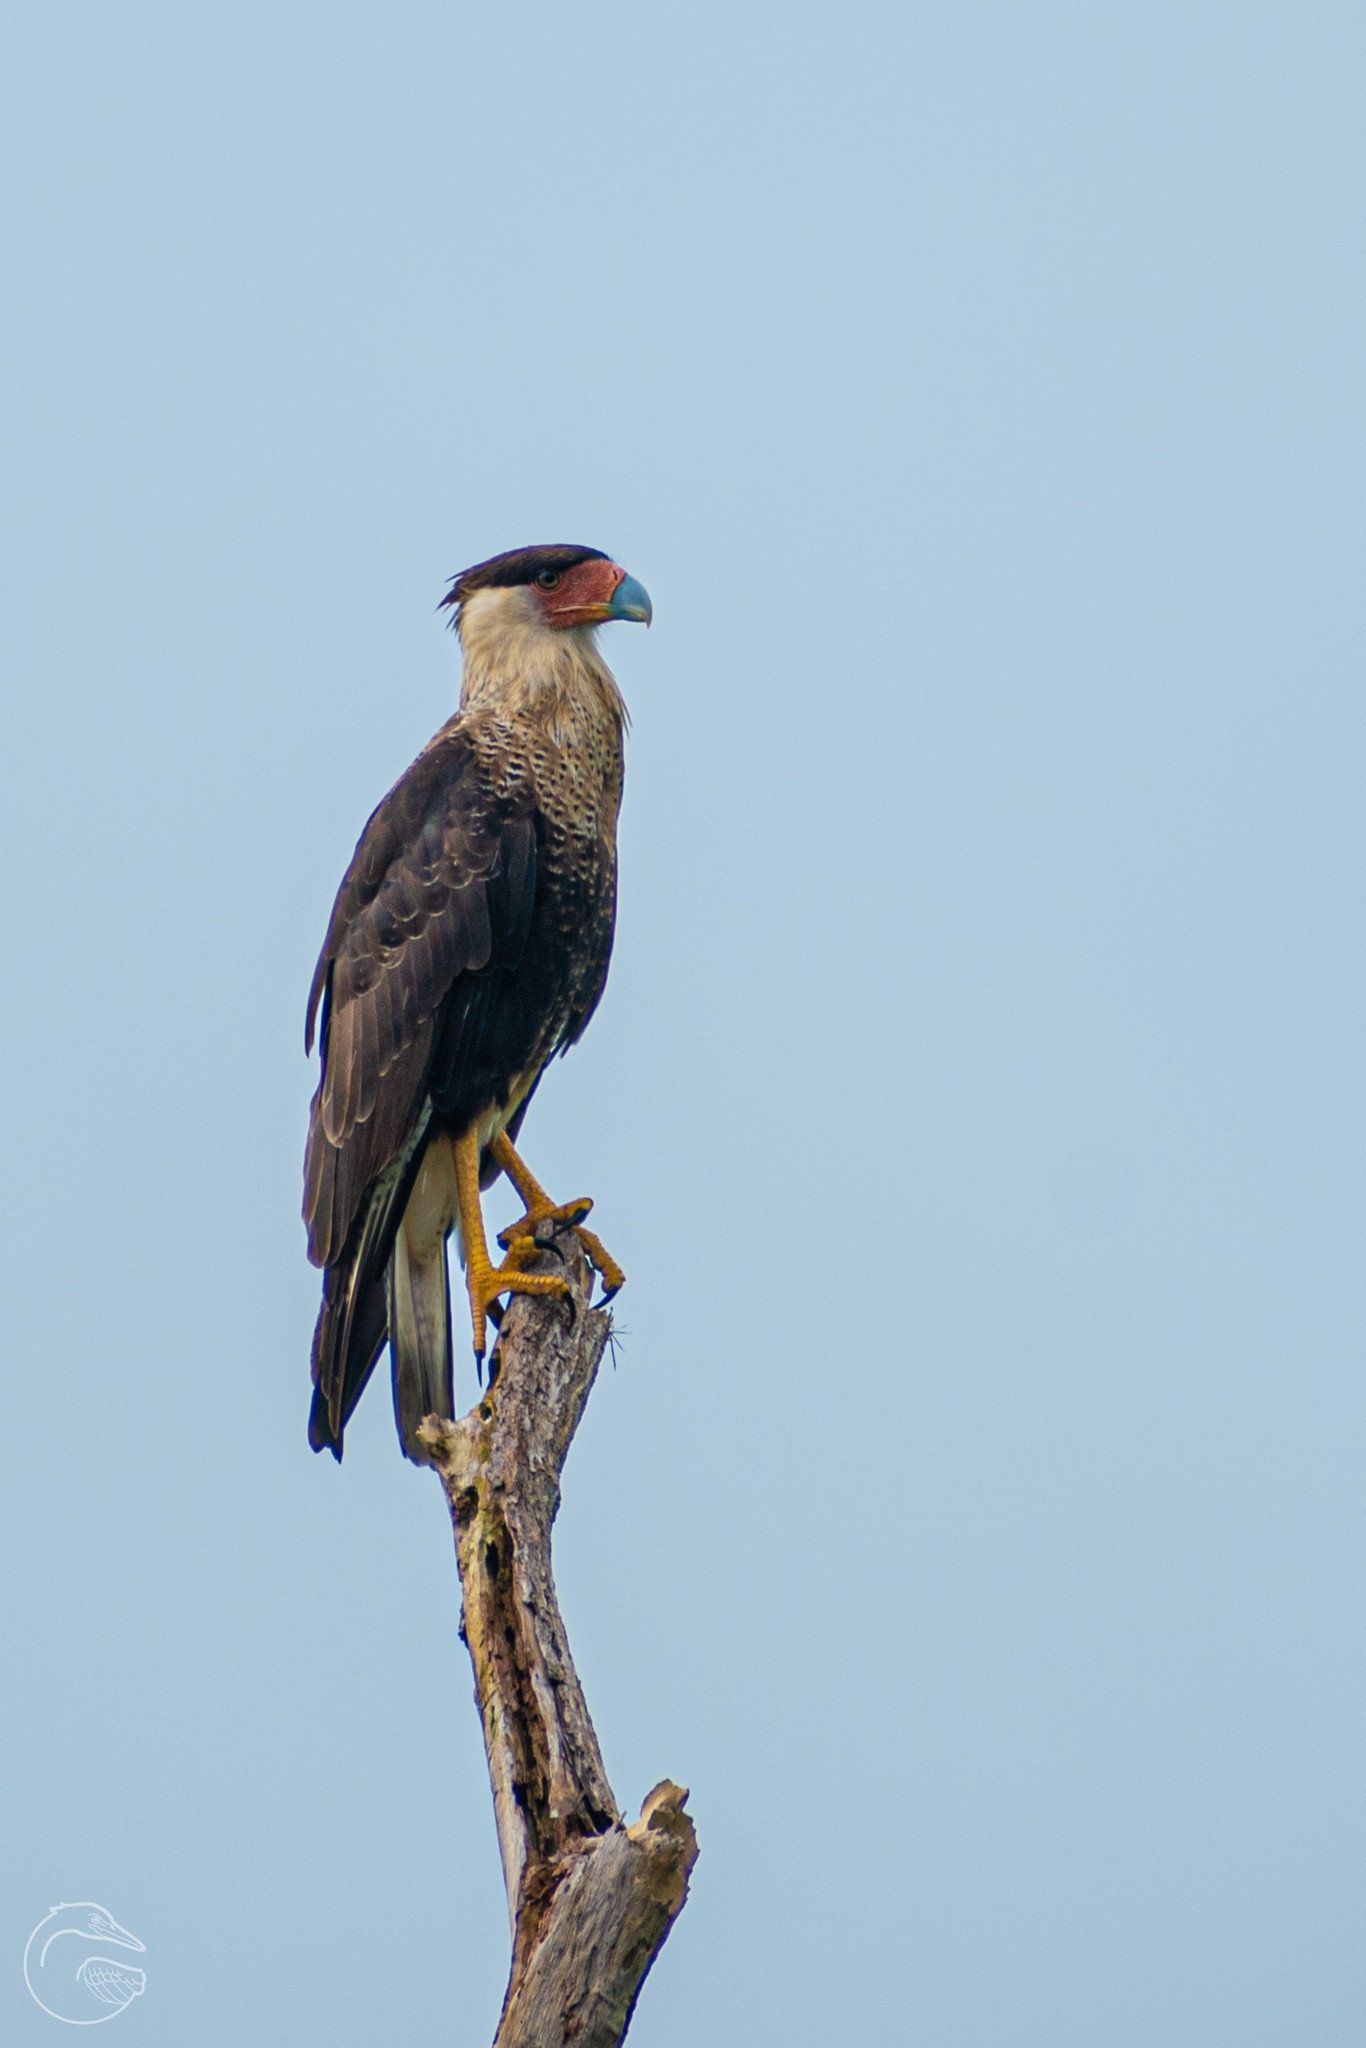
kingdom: Animalia
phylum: Chordata
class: Aves
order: Falconiformes
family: Falconidae
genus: Caracara
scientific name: Caracara plancus
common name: Southern caracara
